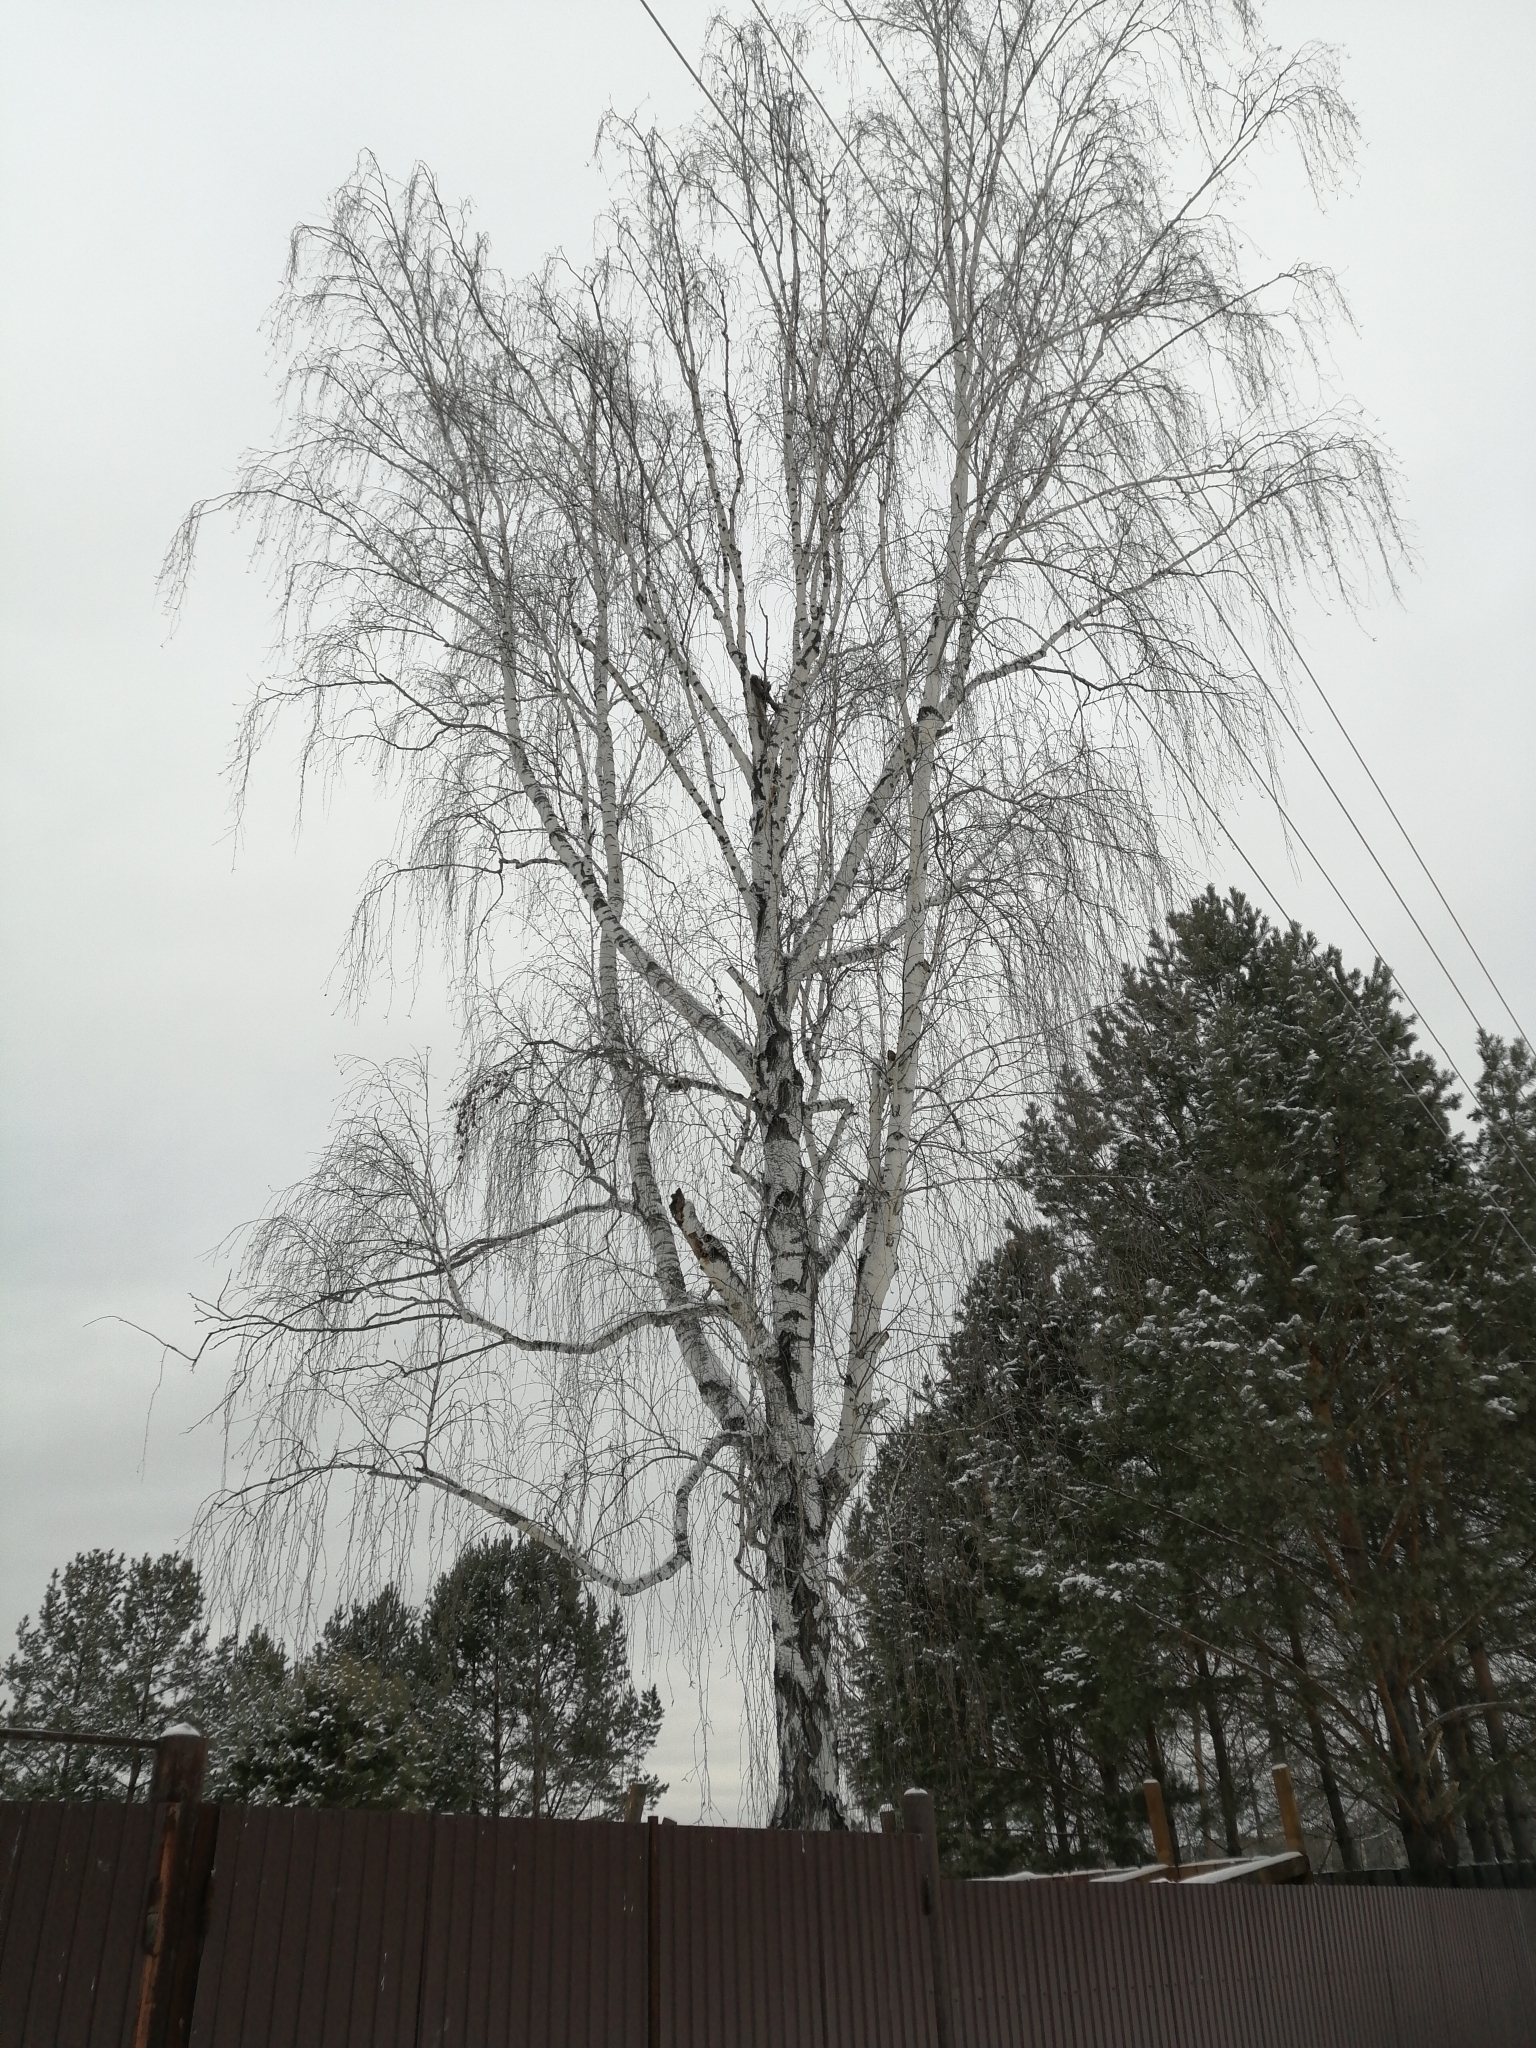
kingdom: Plantae
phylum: Tracheophyta
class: Magnoliopsida
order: Fagales
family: Betulaceae
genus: Betula
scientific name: Betula pendula
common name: Silver birch
